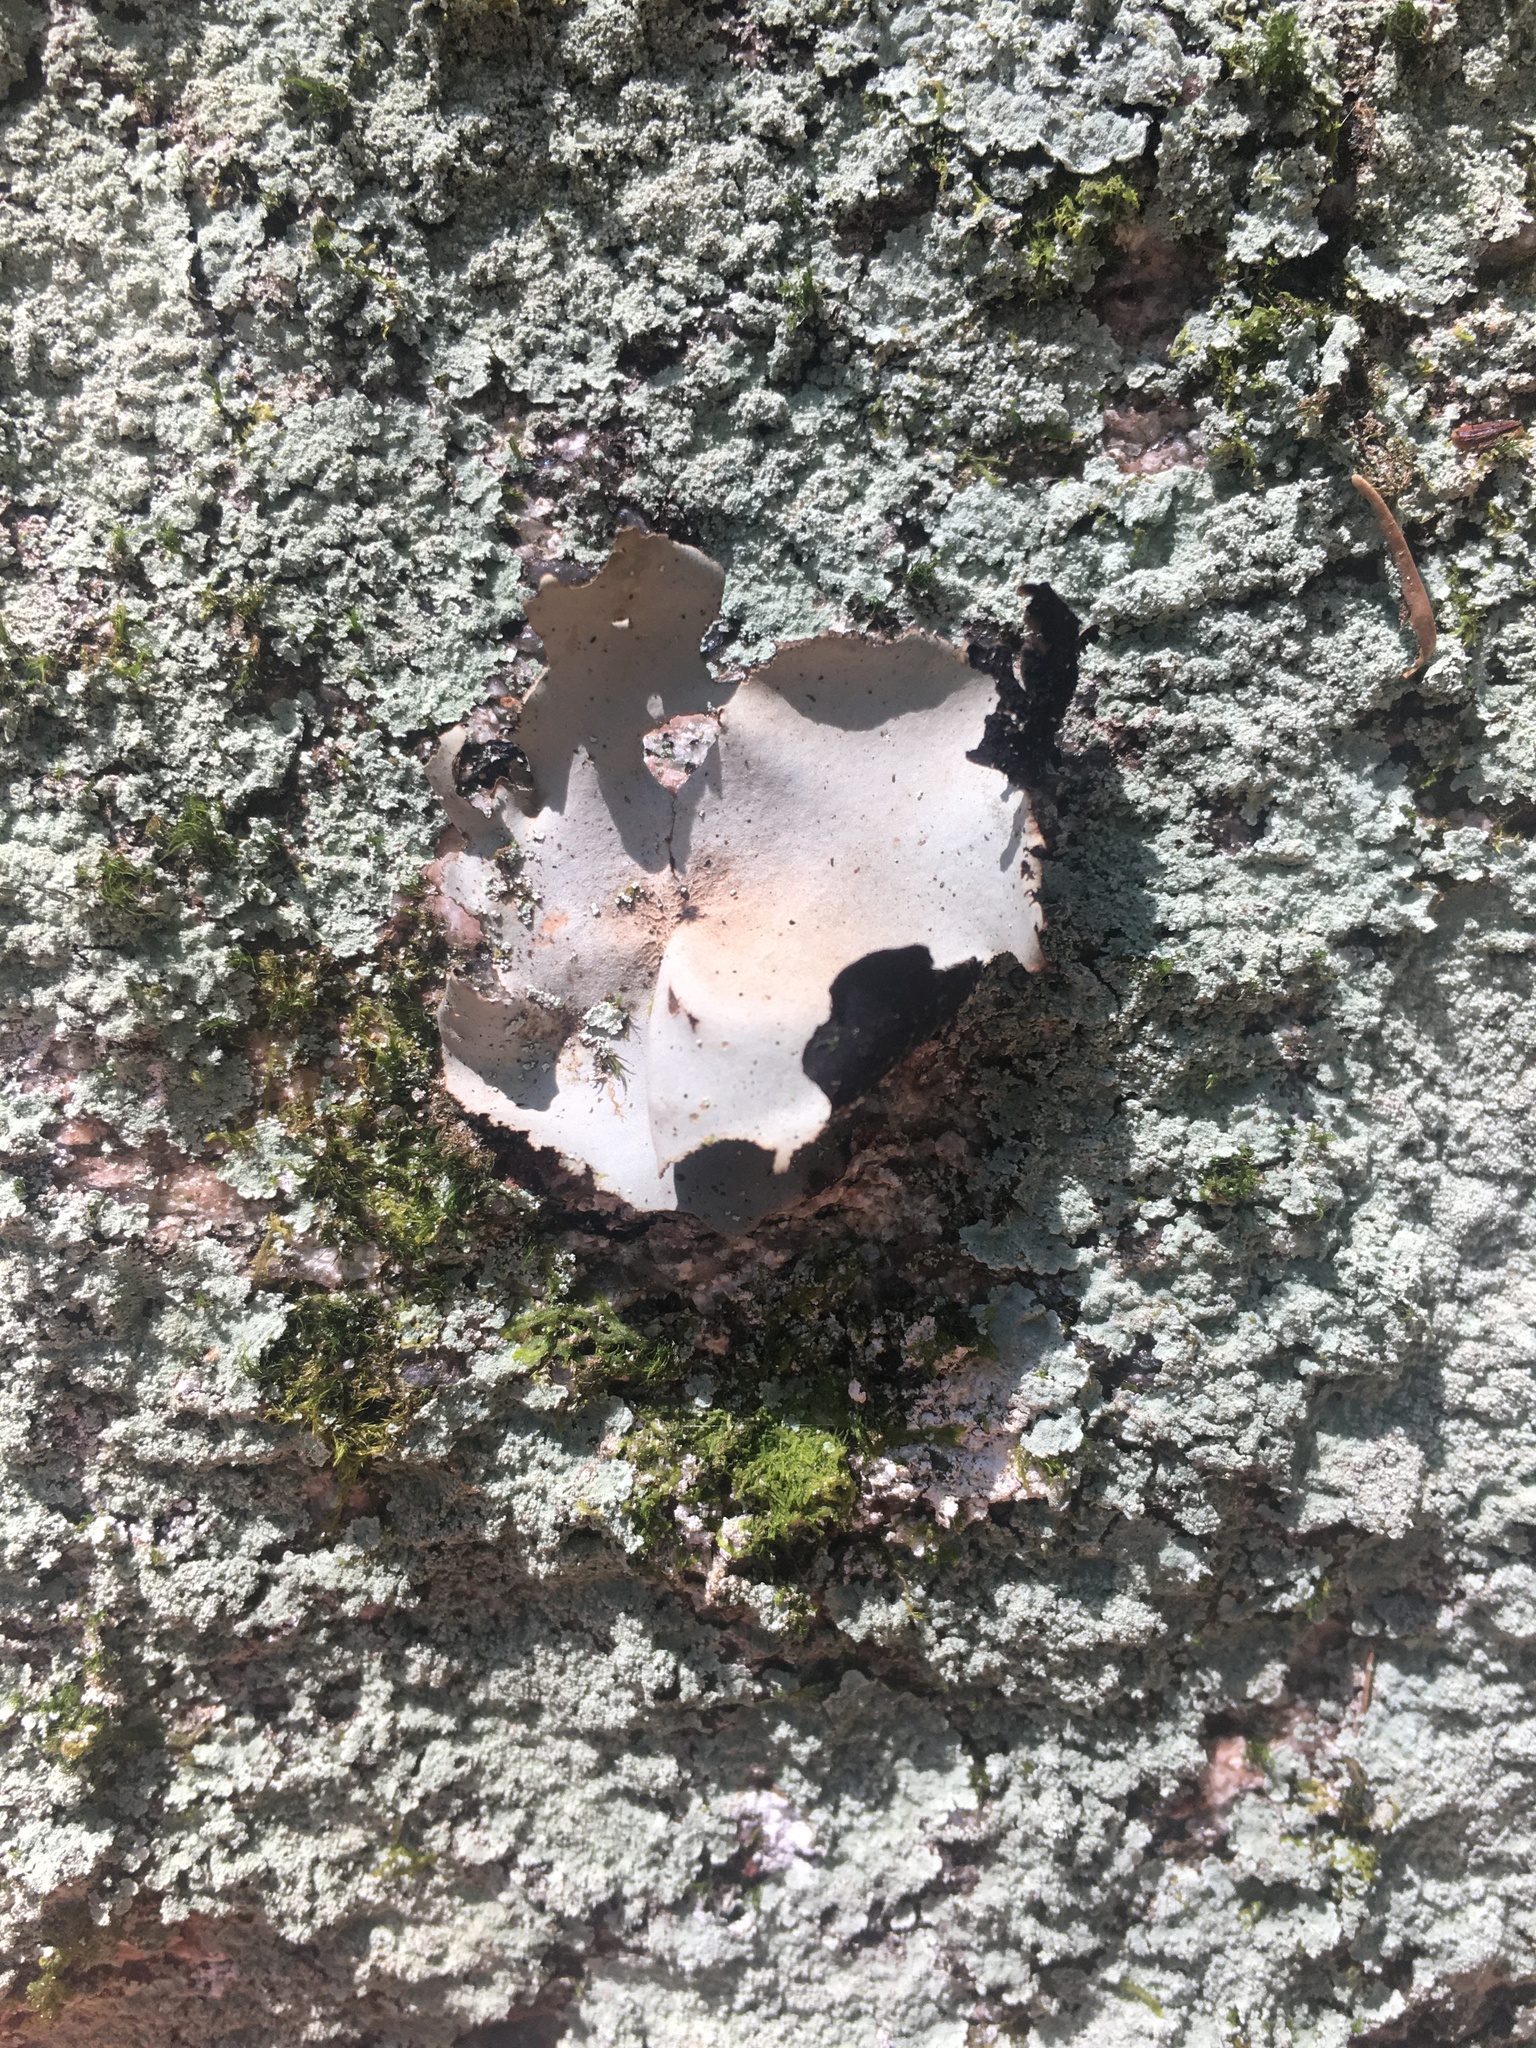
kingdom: Fungi
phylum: Ascomycota
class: Lecanoromycetes
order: Umbilicariales
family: Umbilicariaceae
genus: Umbilicaria
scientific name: Umbilicaria americana
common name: Frosted rock tripe
